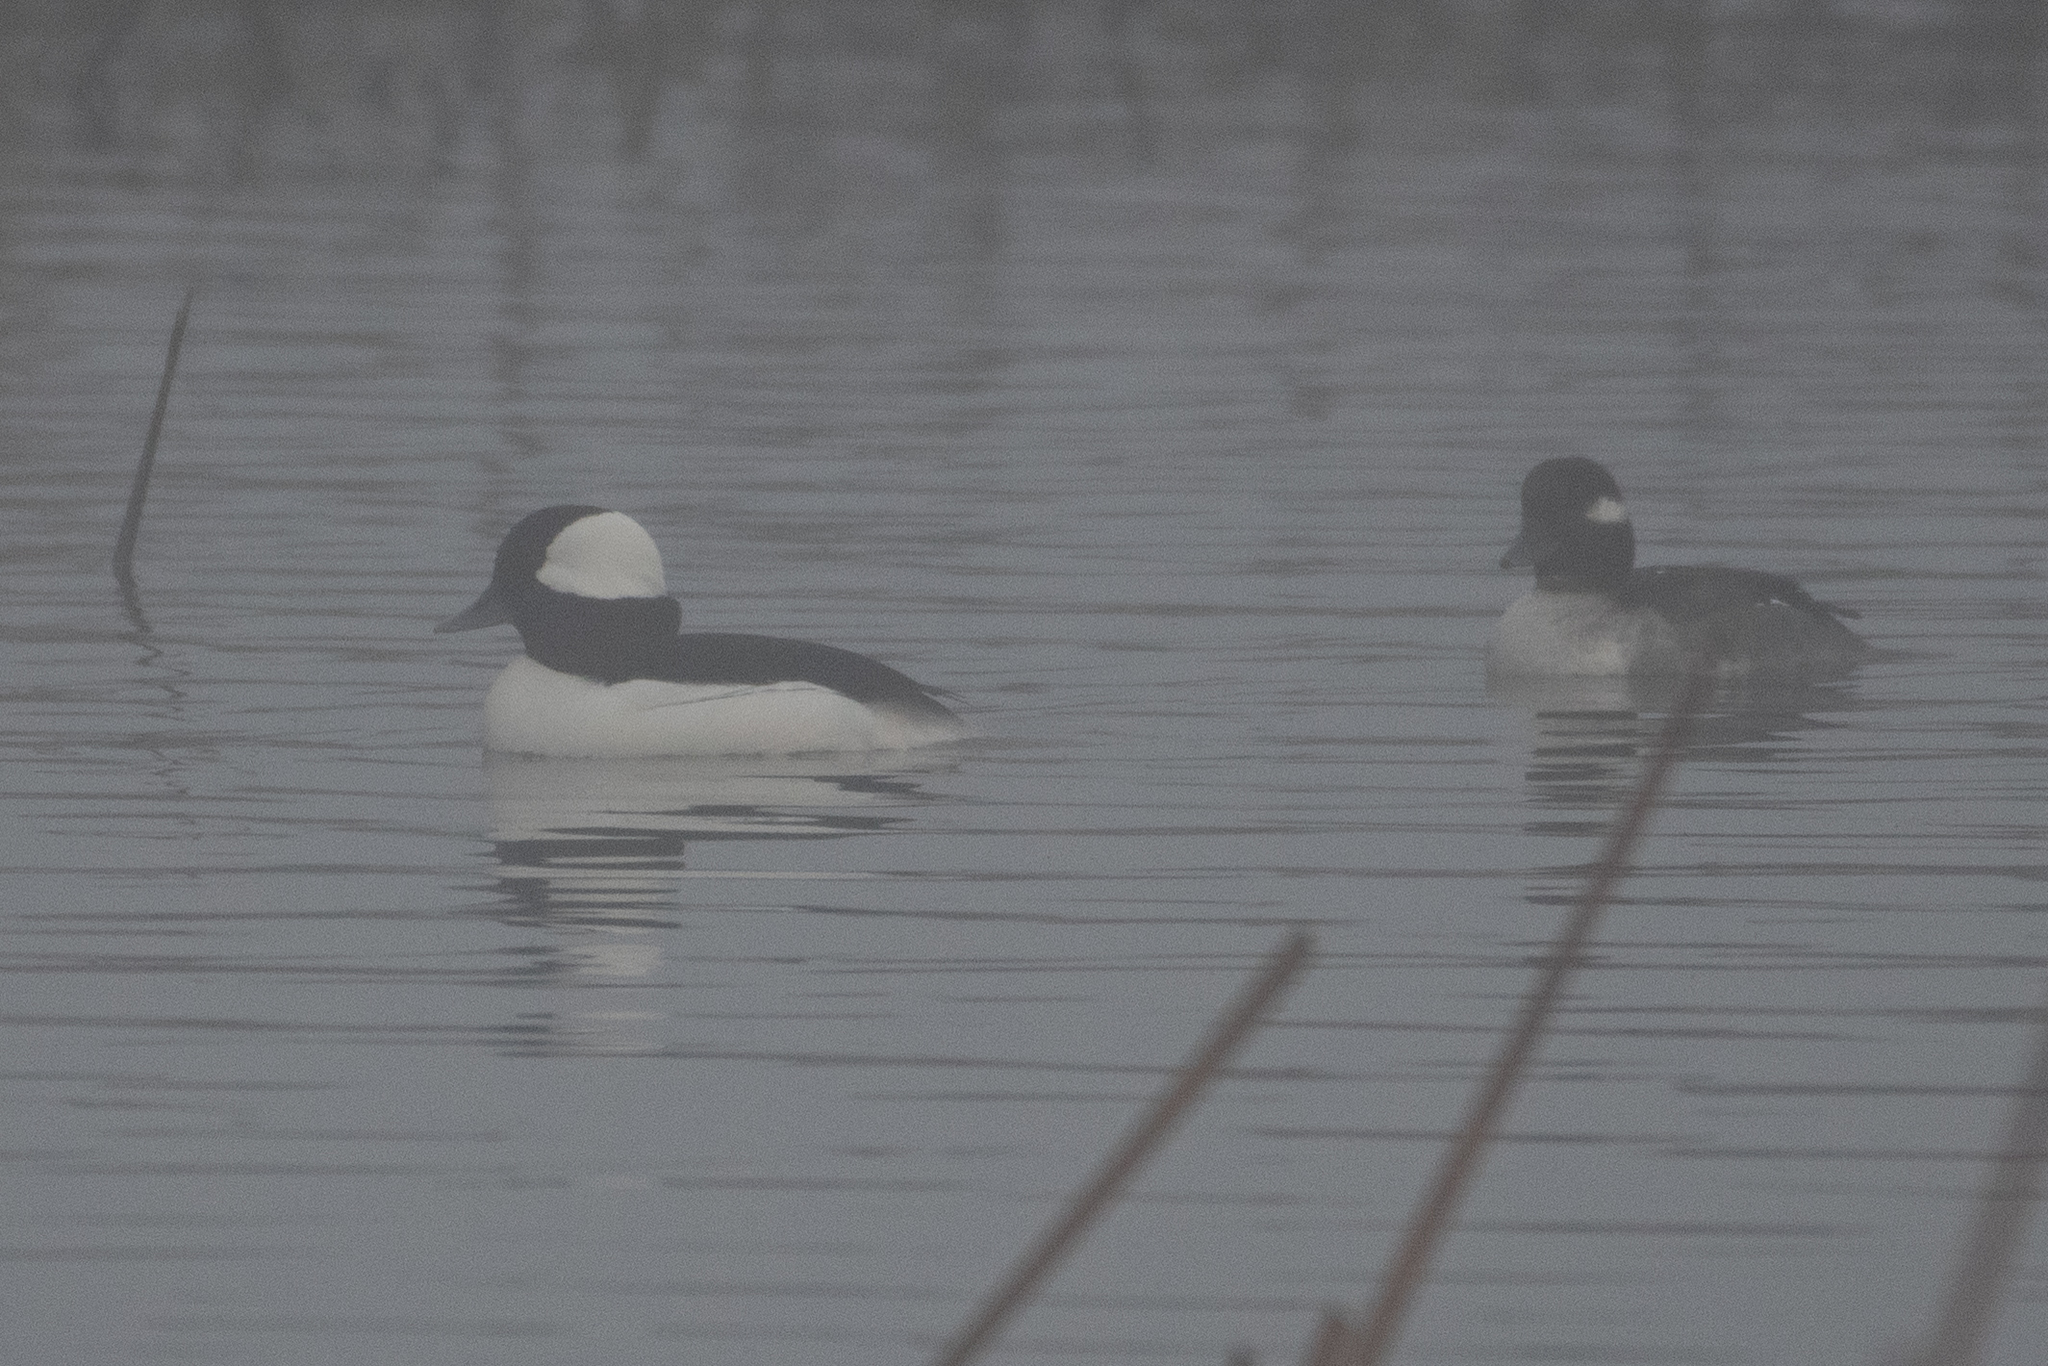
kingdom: Animalia
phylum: Chordata
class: Aves
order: Anseriformes
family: Anatidae
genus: Bucephala
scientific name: Bucephala albeola
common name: Bufflehead
